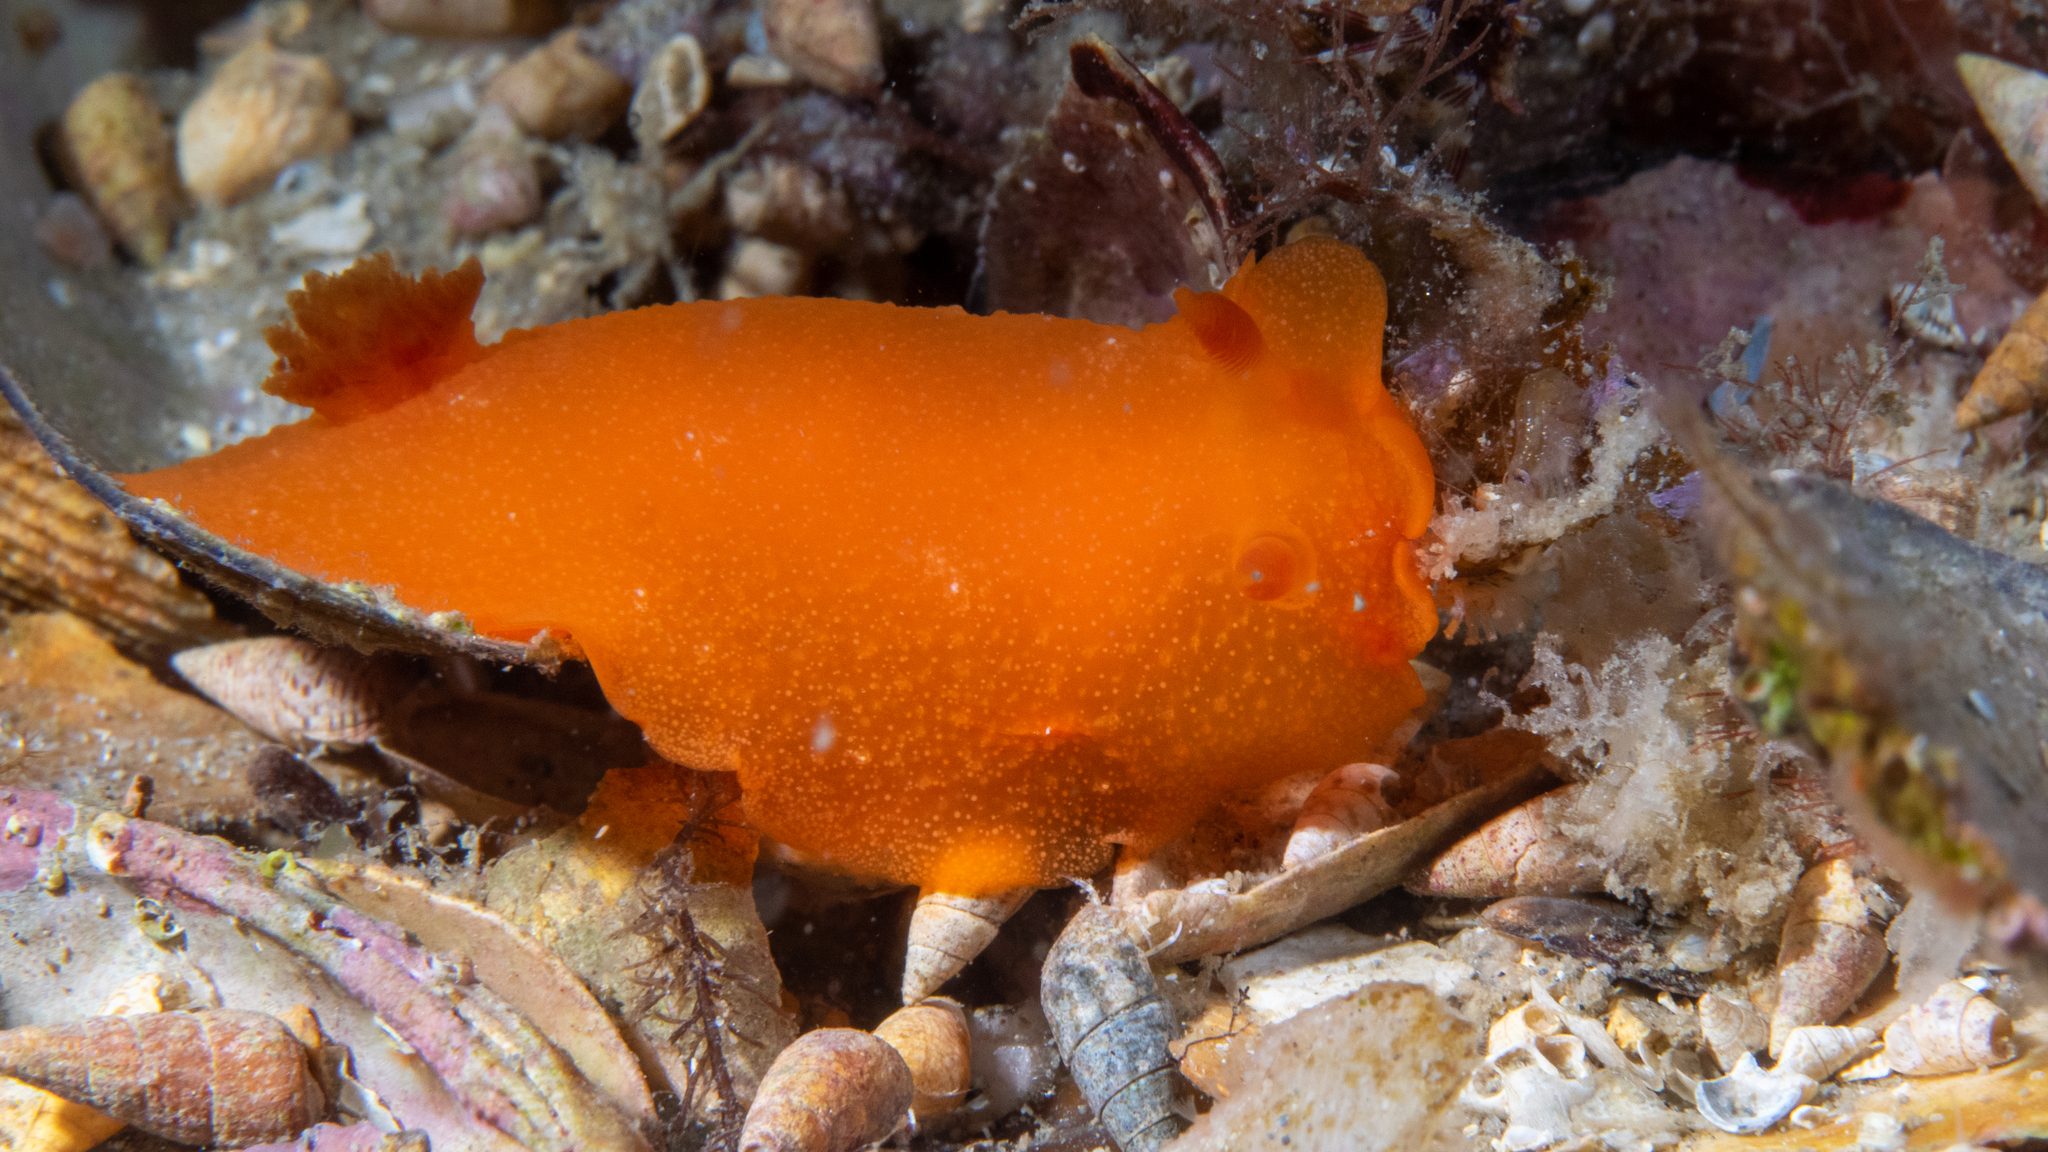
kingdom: Animalia
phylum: Mollusca
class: Gastropoda
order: Nudibranchia
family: Dendrodorididae
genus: Doriopsilla
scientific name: Doriopsilla carneola
